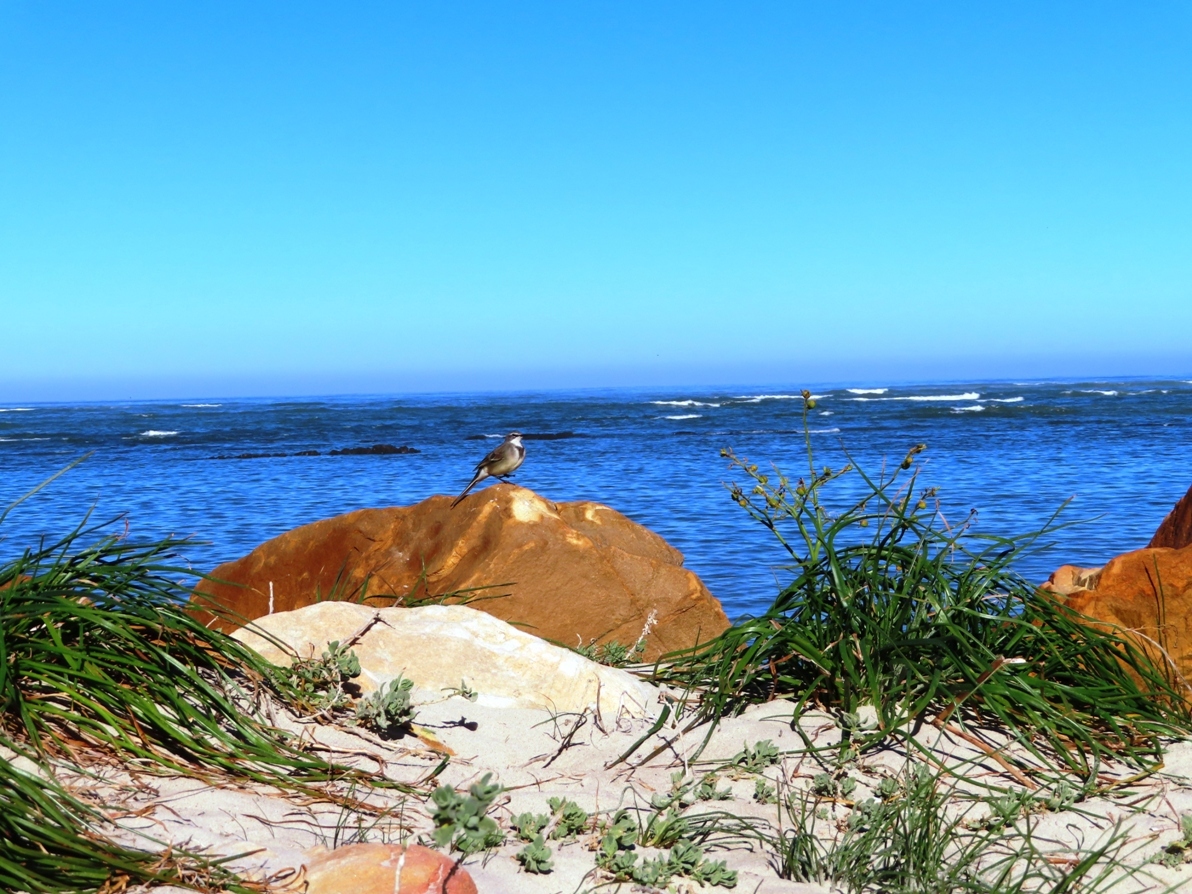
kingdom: Animalia
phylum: Chordata
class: Aves
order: Passeriformes
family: Motacillidae
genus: Motacilla
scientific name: Motacilla capensis
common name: Cape wagtail
